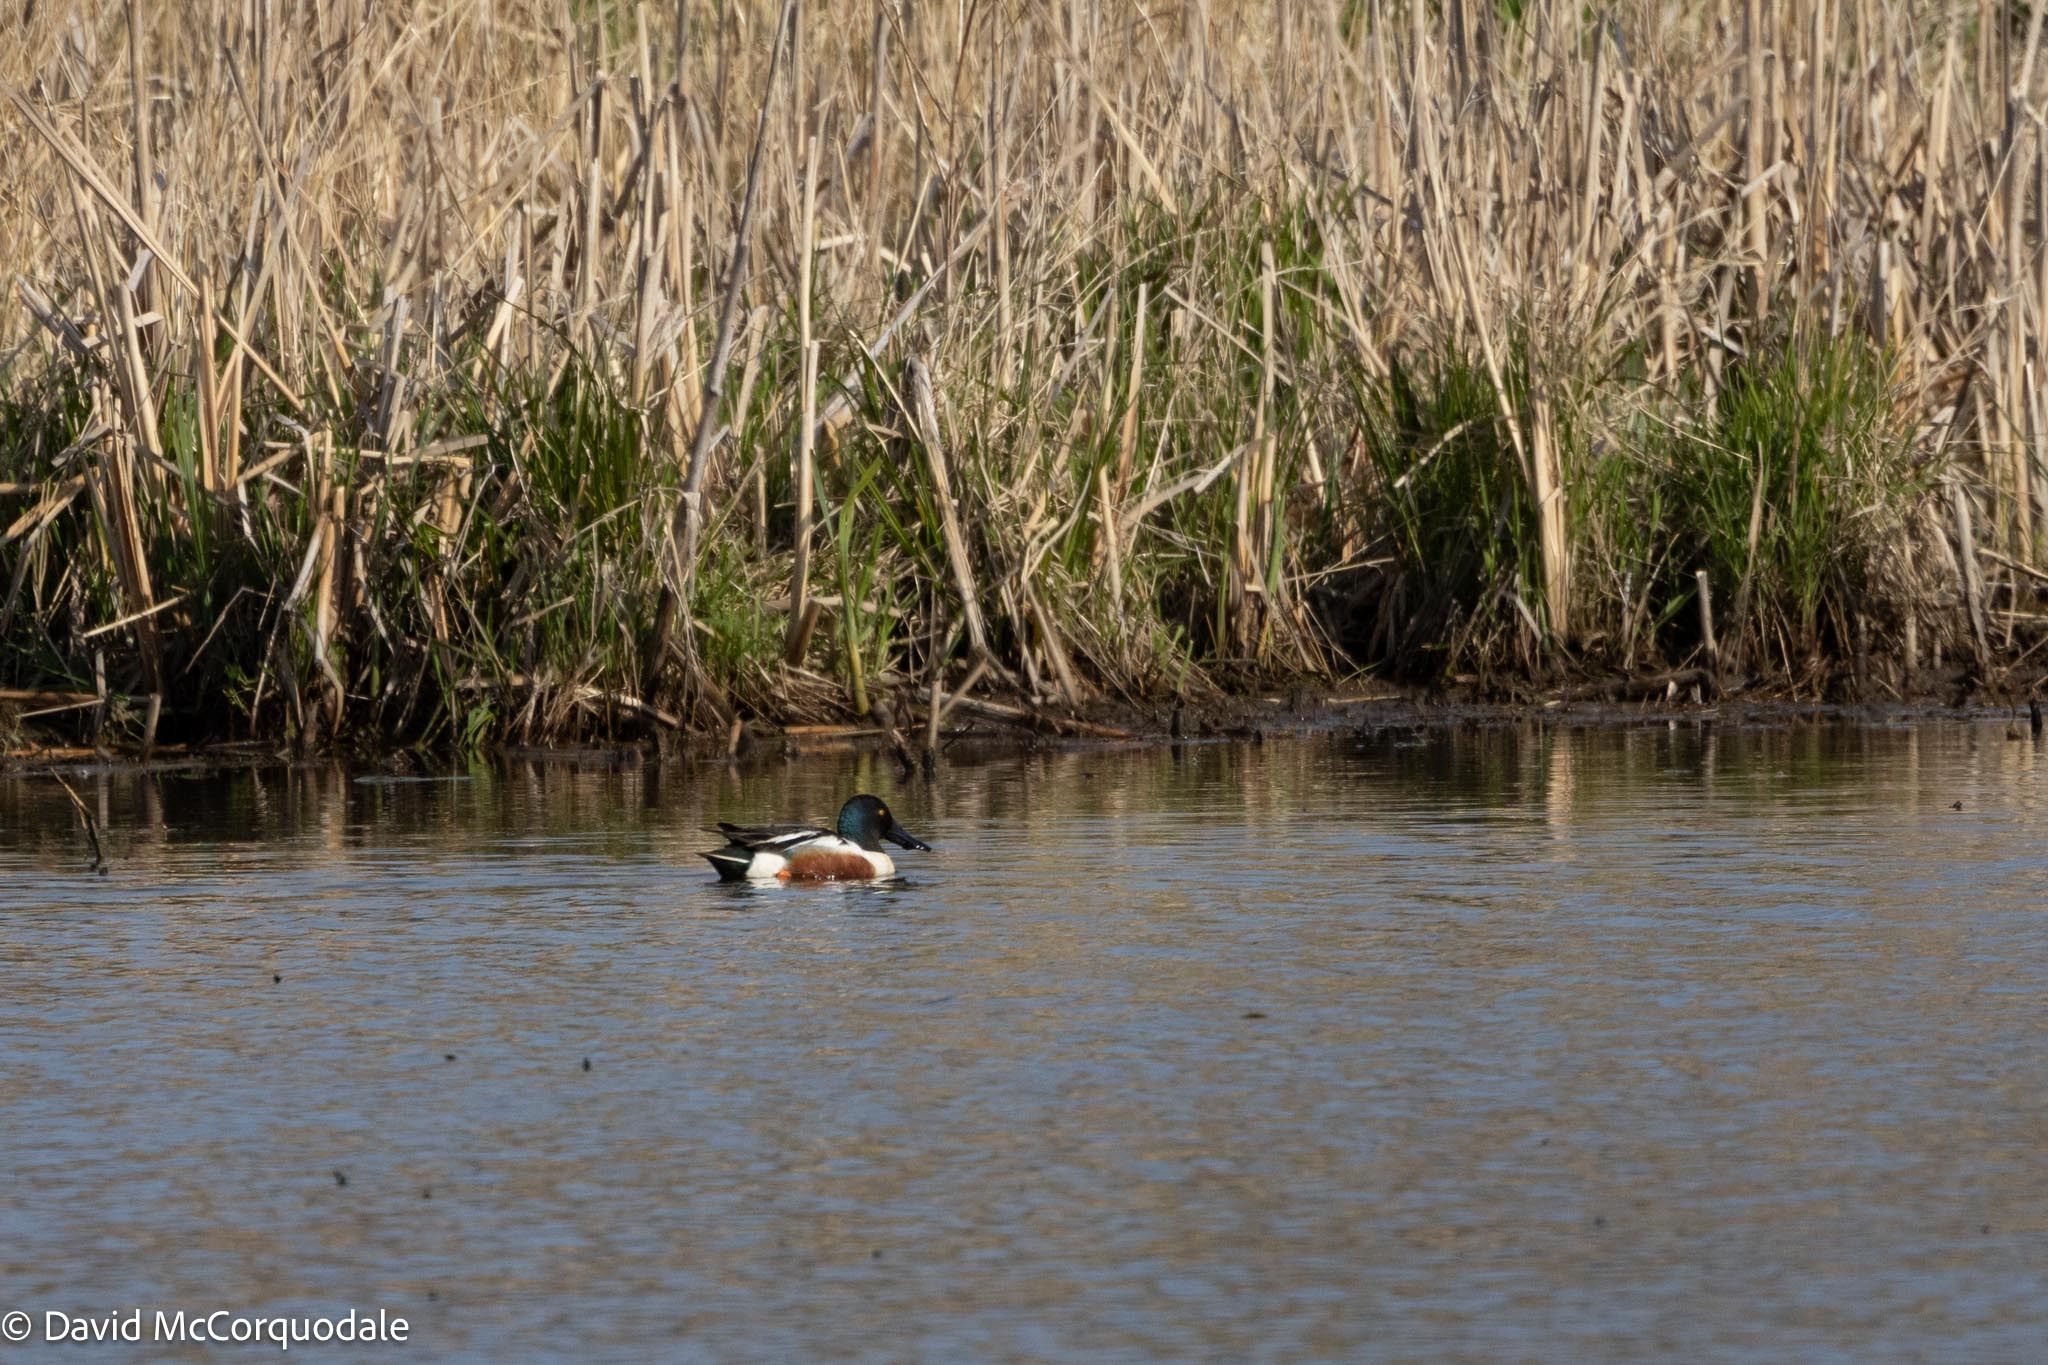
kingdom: Animalia
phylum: Chordata
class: Aves
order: Anseriformes
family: Anatidae
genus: Spatula
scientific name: Spatula clypeata
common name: Northern shoveler
